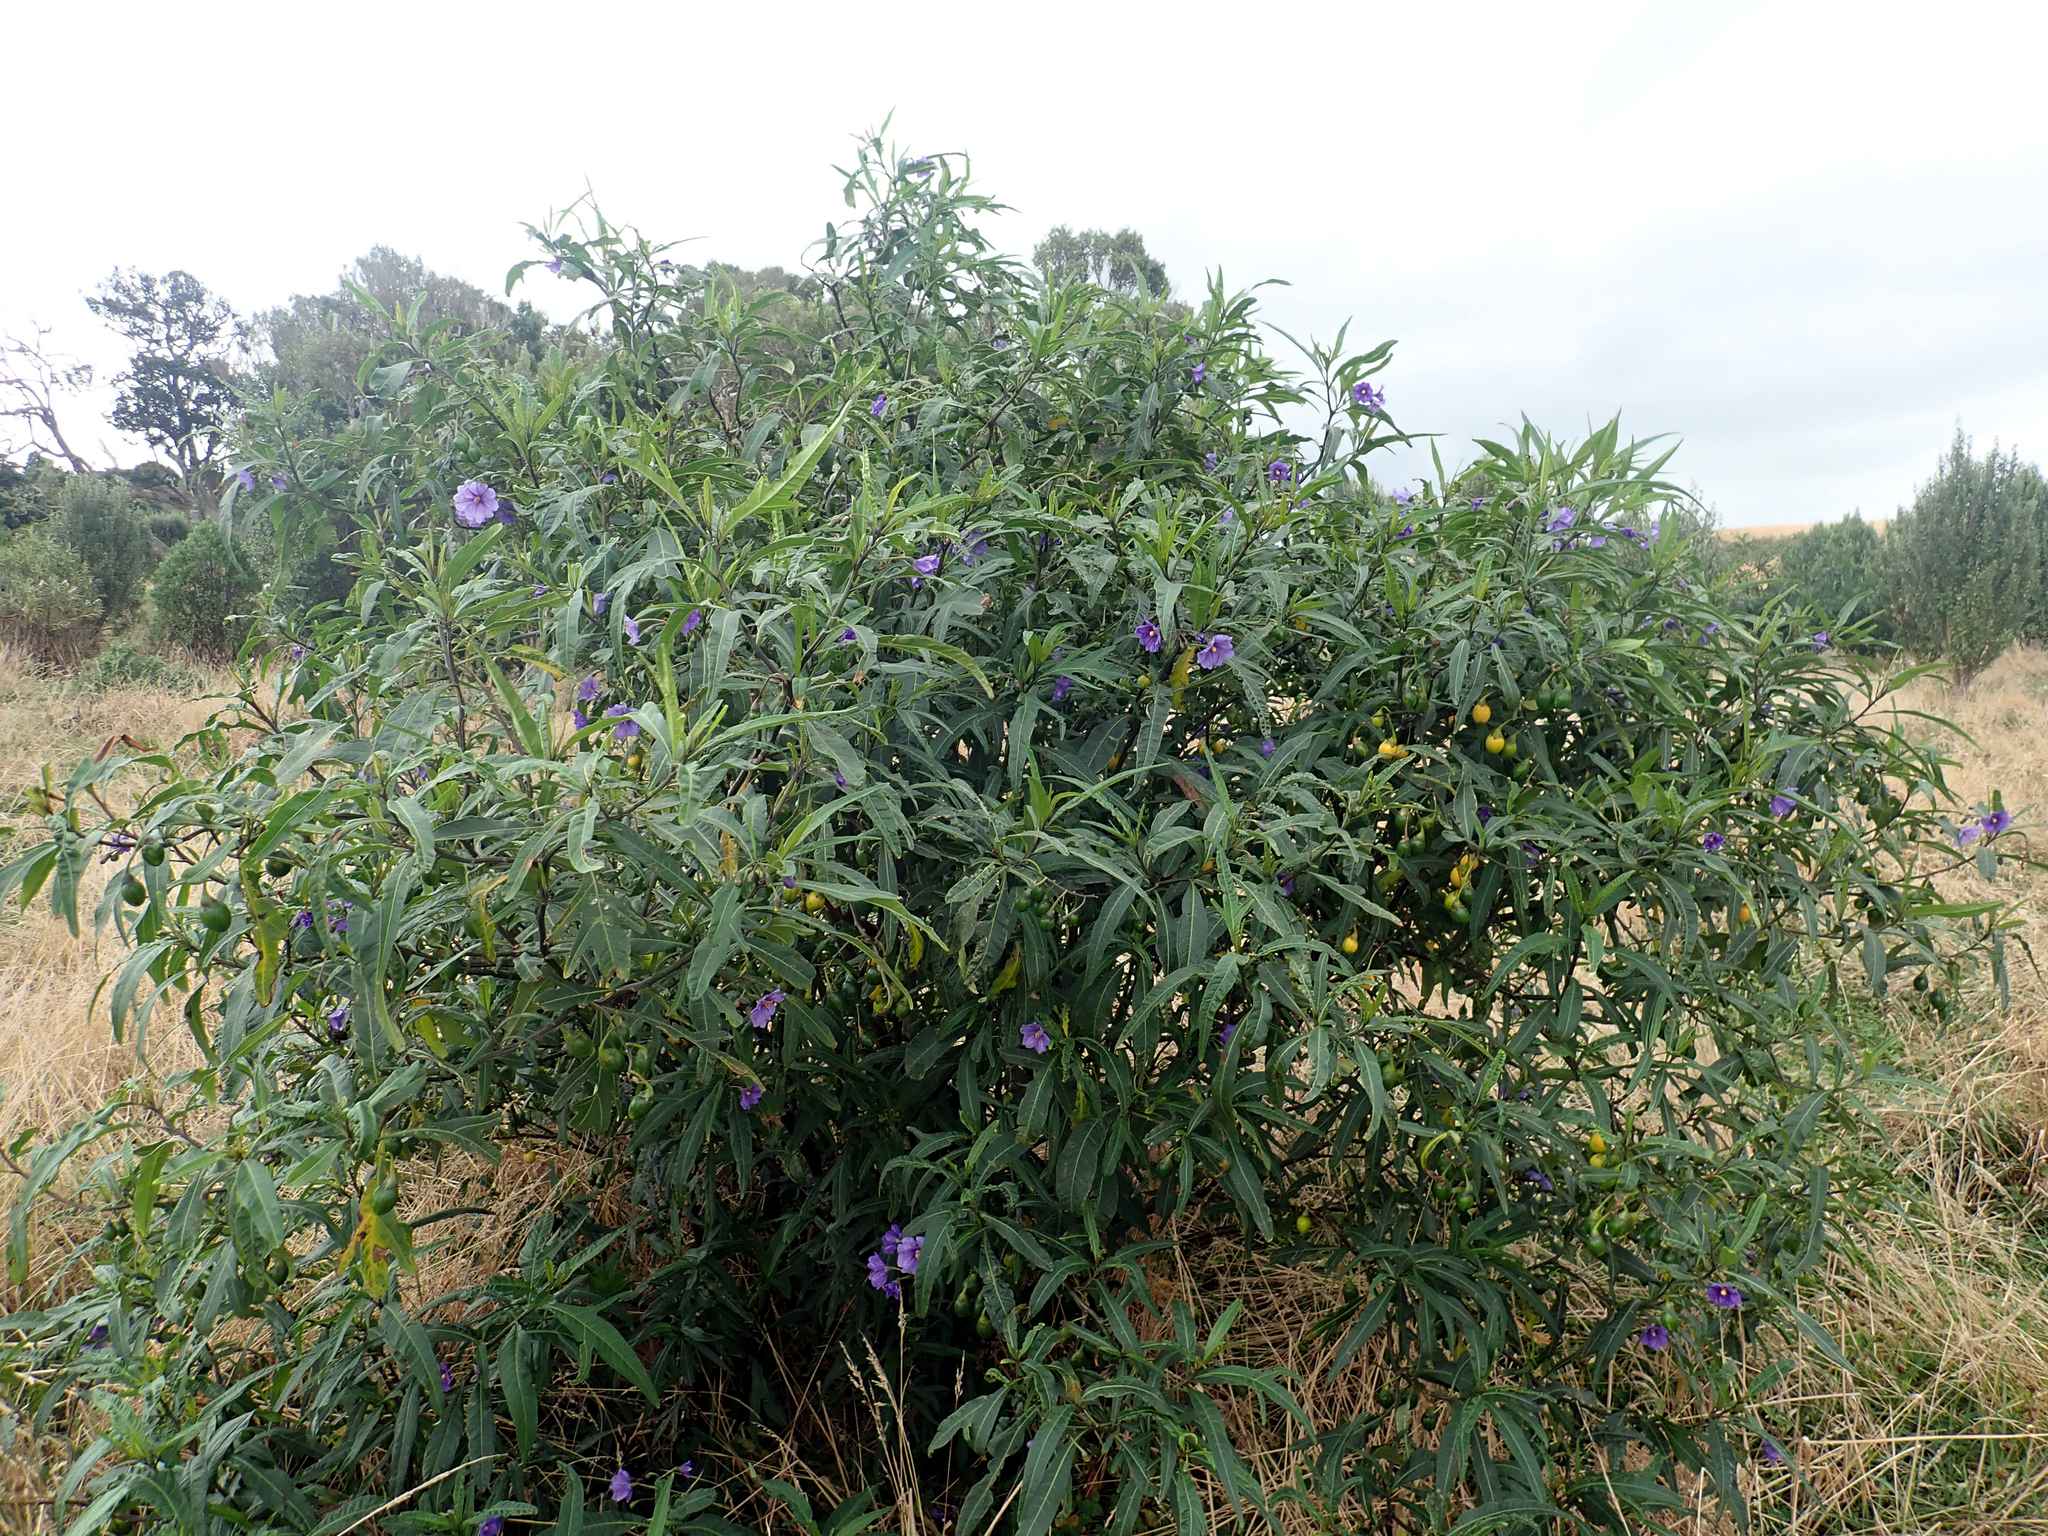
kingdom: Plantae
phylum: Tracheophyta
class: Magnoliopsida
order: Solanales
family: Solanaceae
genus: Solanum
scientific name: Solanum laciniatum
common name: Kangaroo-apple
